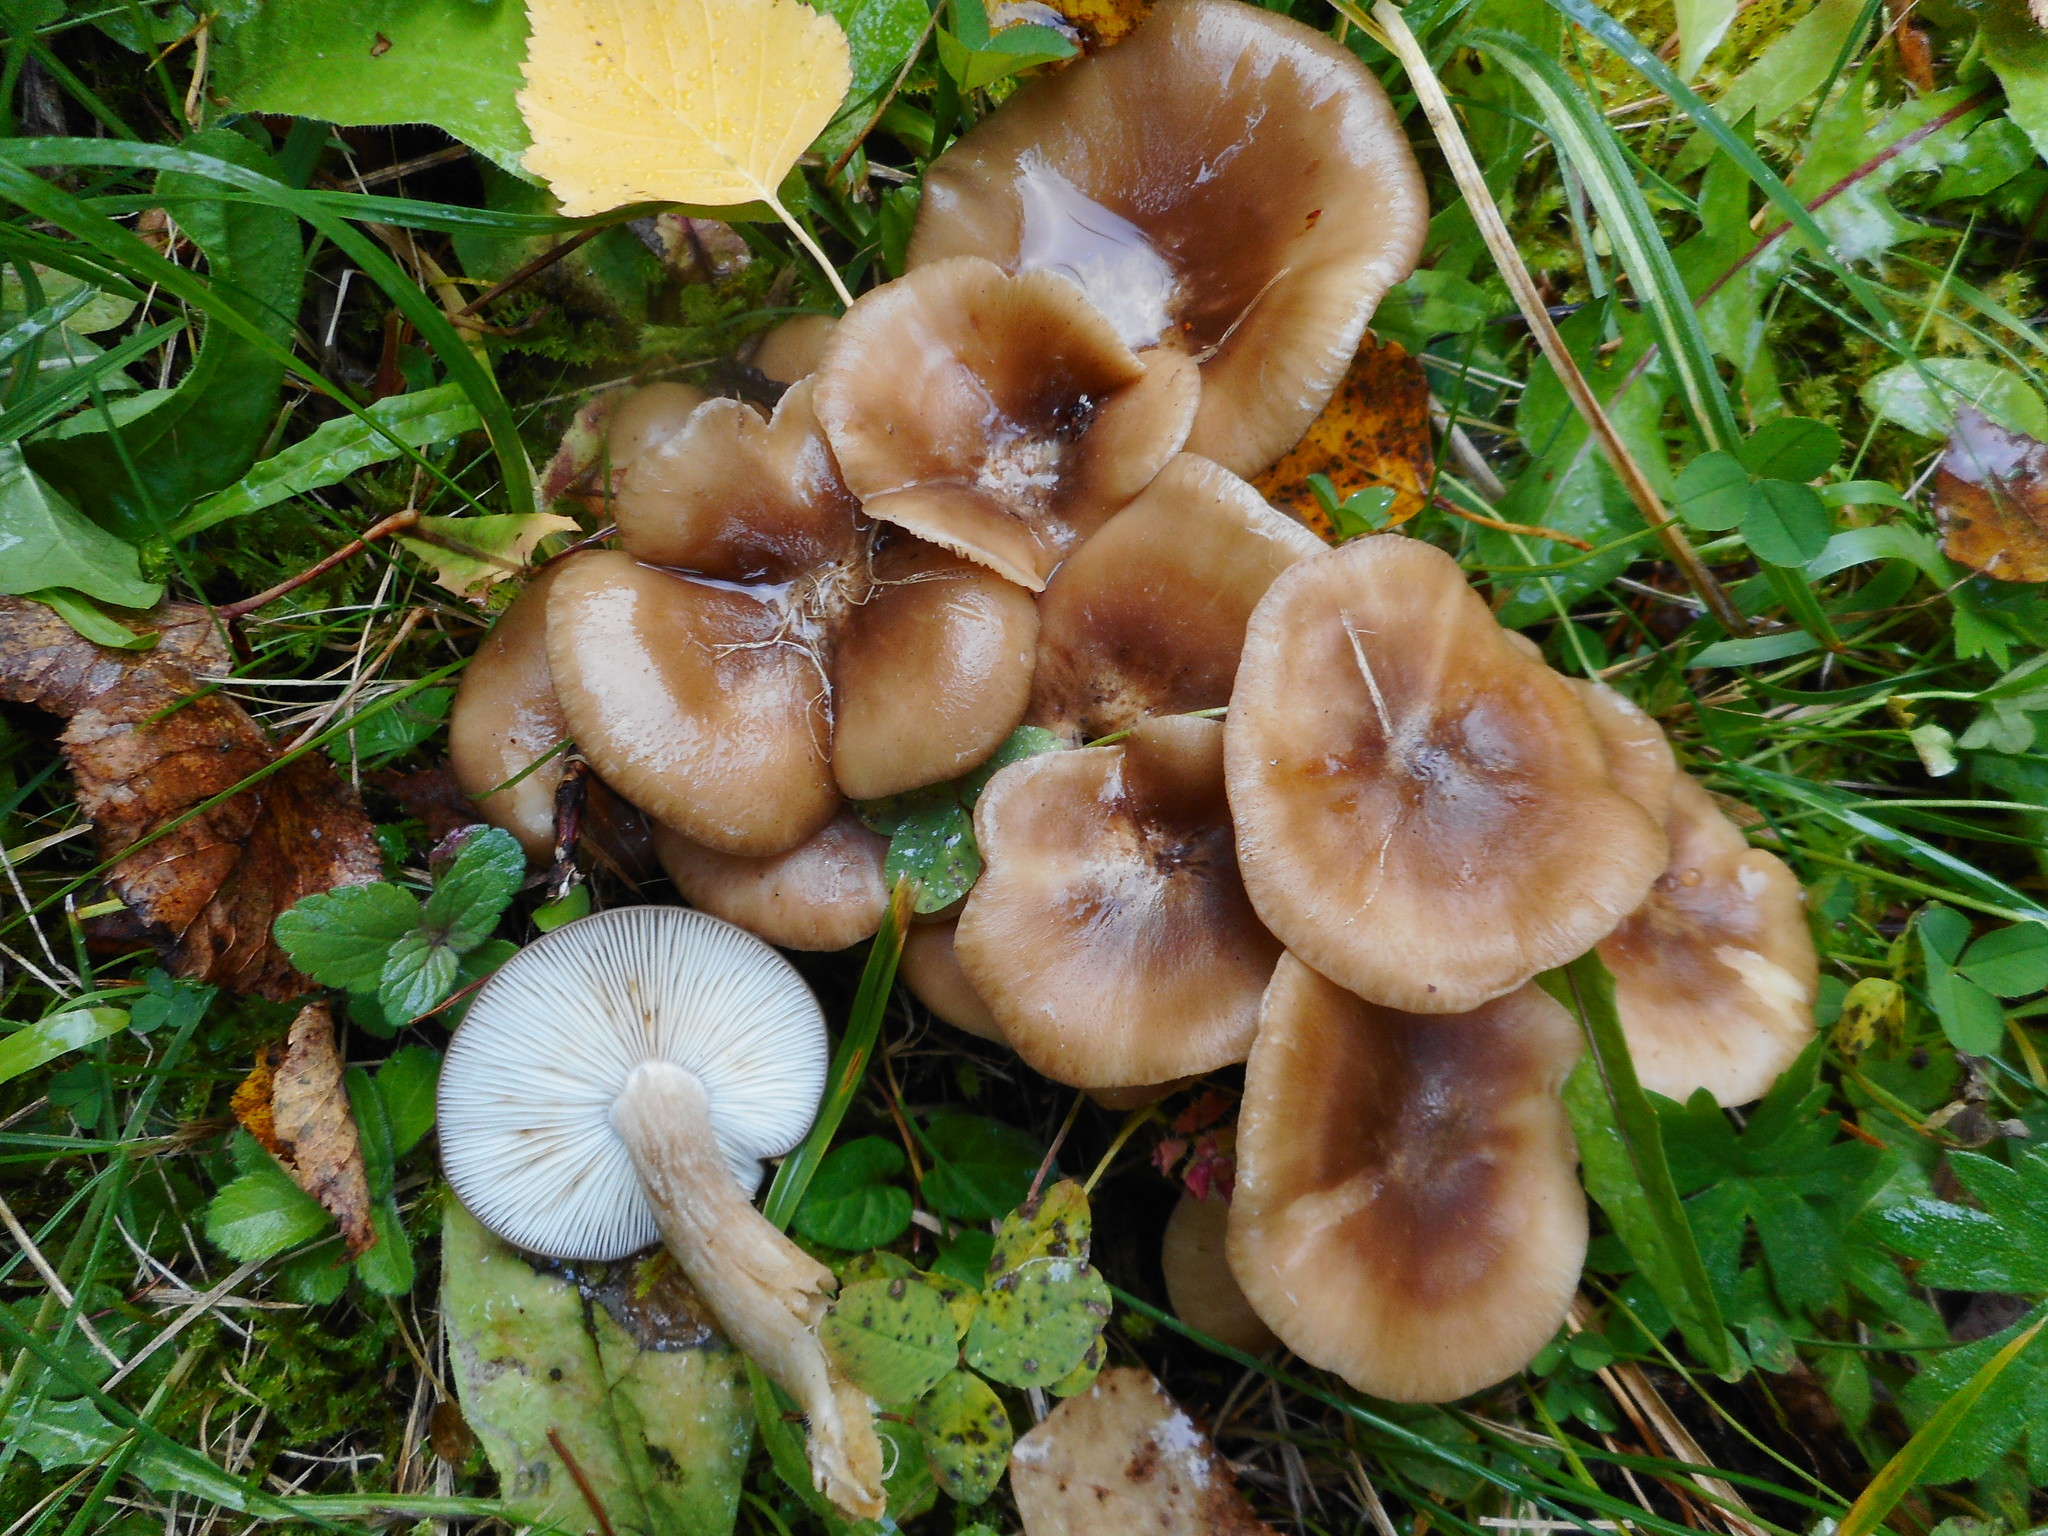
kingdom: Fungi
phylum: Basidiomycota
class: Agaricomycetes
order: Agaricales
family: Lyophyllaceae
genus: Lyophyllum
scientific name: Lyophyllum decastes
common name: Clustered domecap
